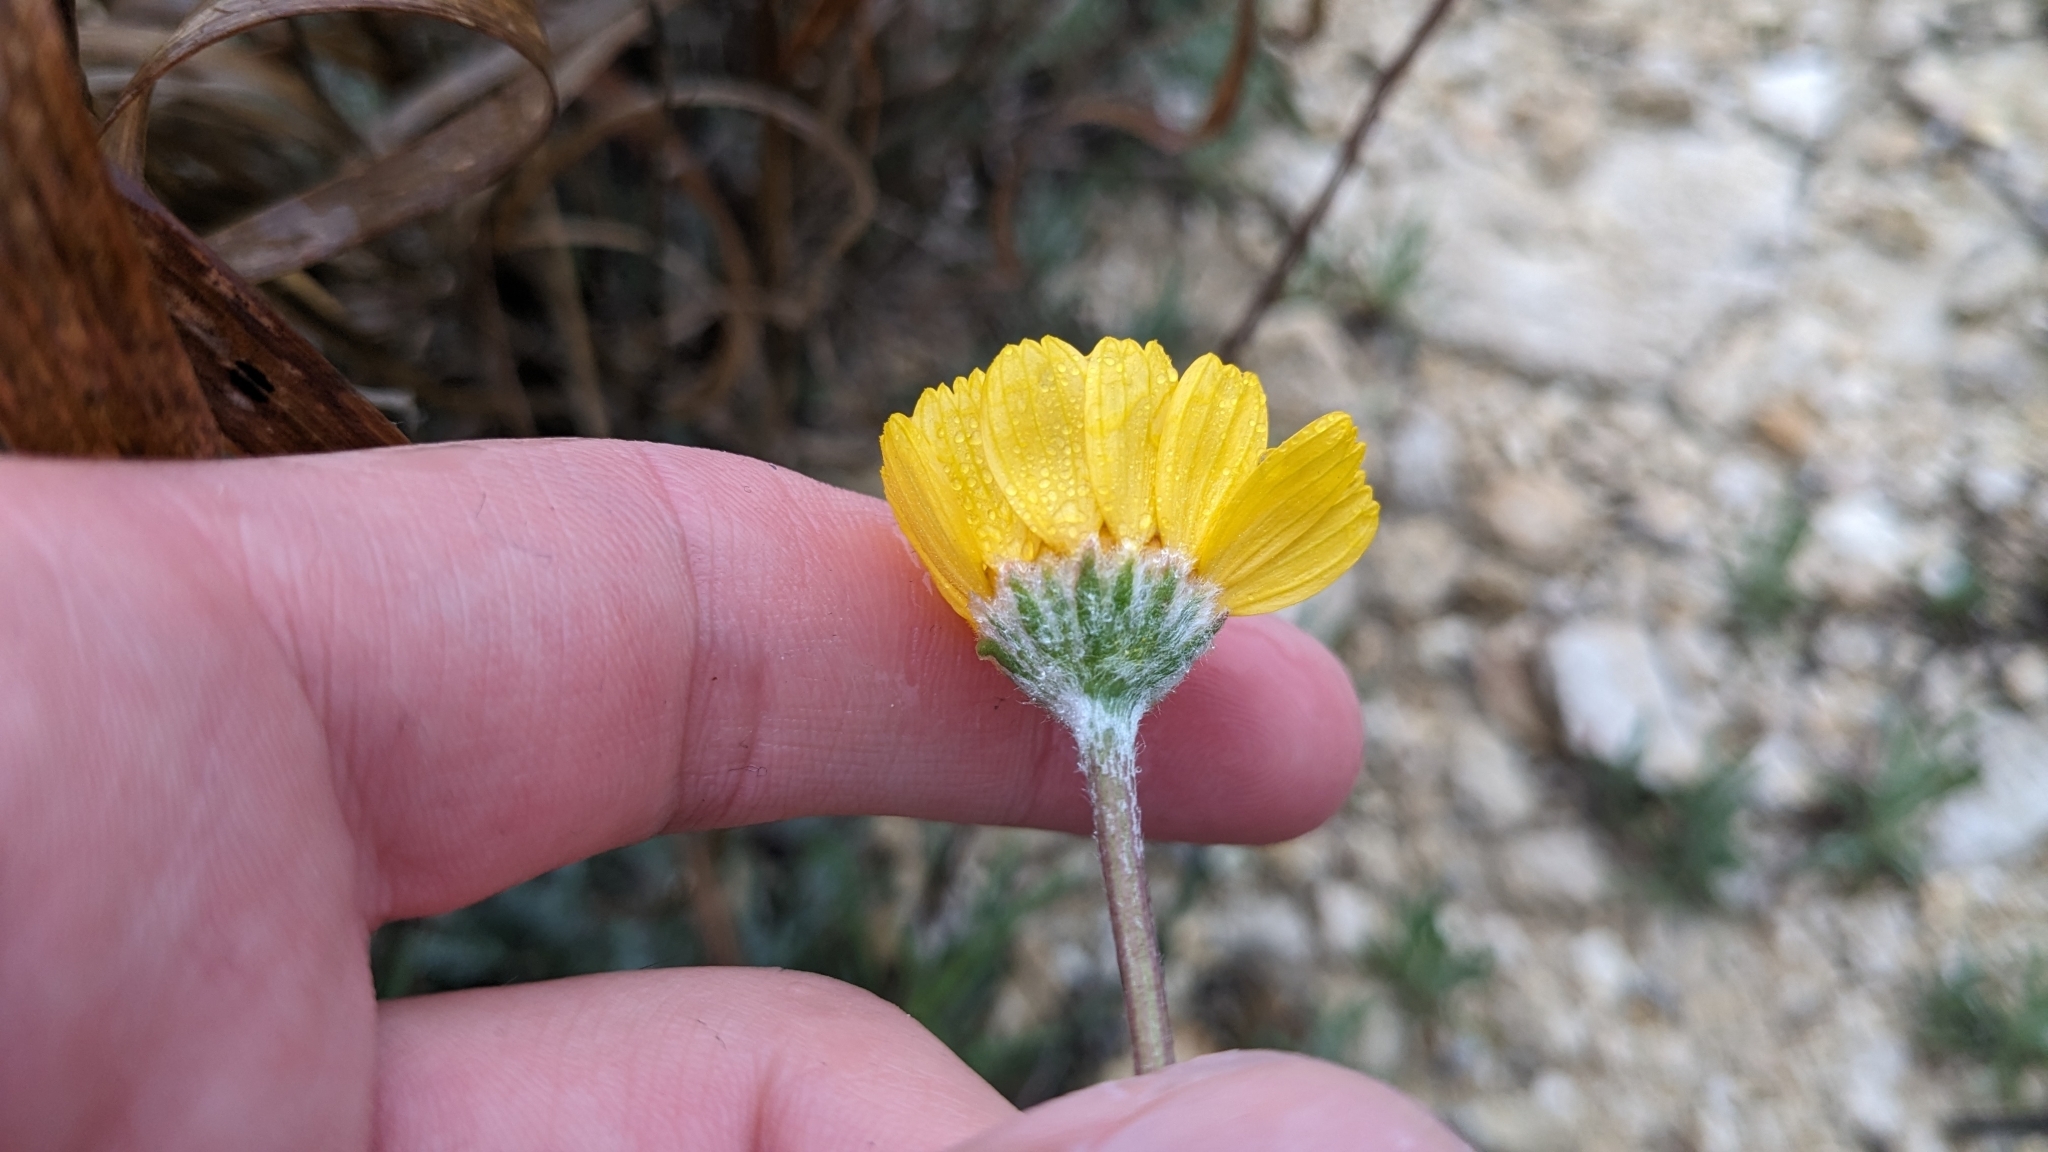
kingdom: Plantae
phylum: Tracheophyta
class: Magnoliopsida
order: Asterales
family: Asteraceae
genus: Tetraneuris
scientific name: Tetraneuris scaposa
